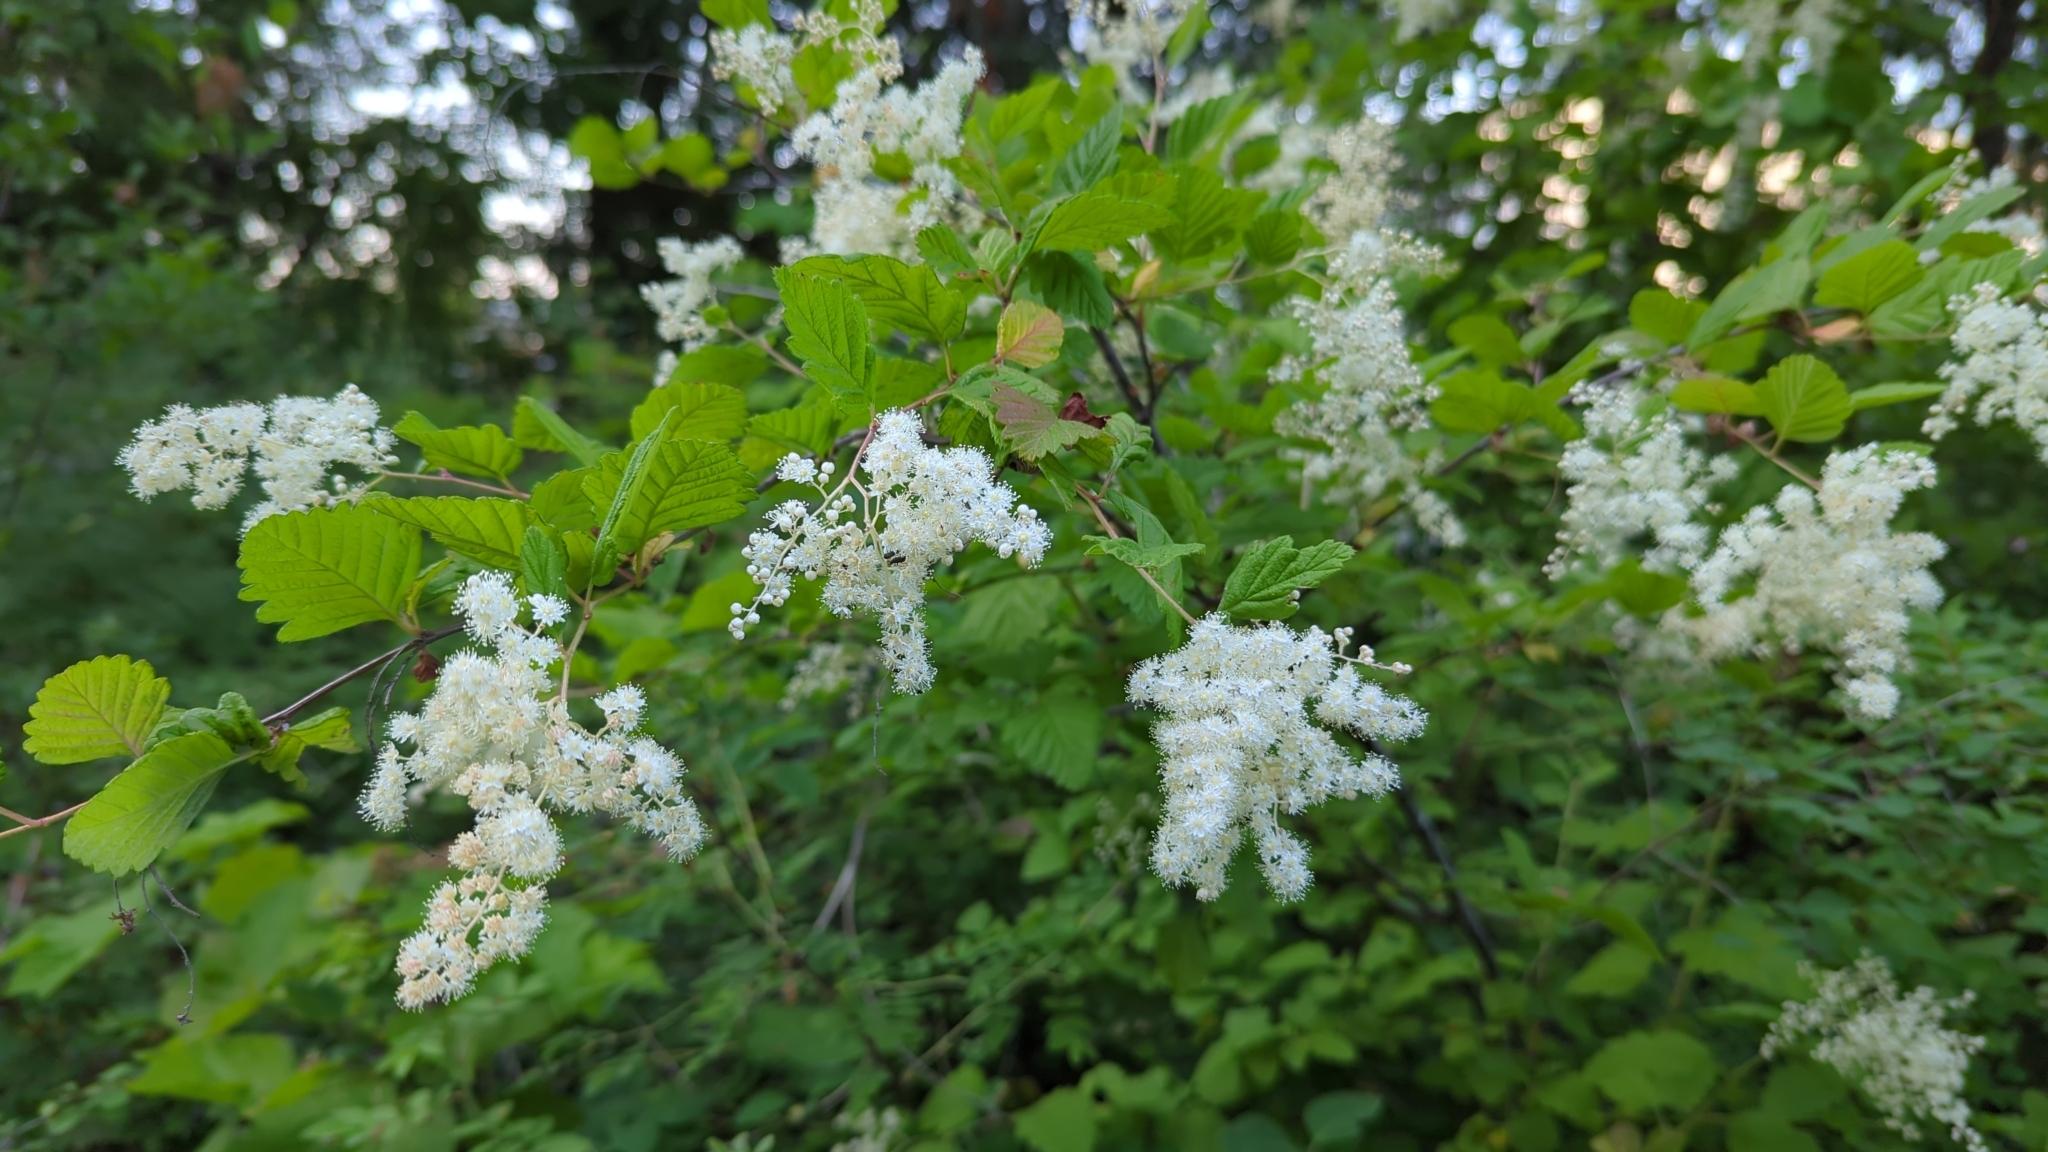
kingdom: Plantae
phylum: Tracheophyta
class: Magnoliopsida
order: Rosales
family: Rosaceae
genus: Holodiscus
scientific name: Holodiscus discolor
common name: Oceanspray
